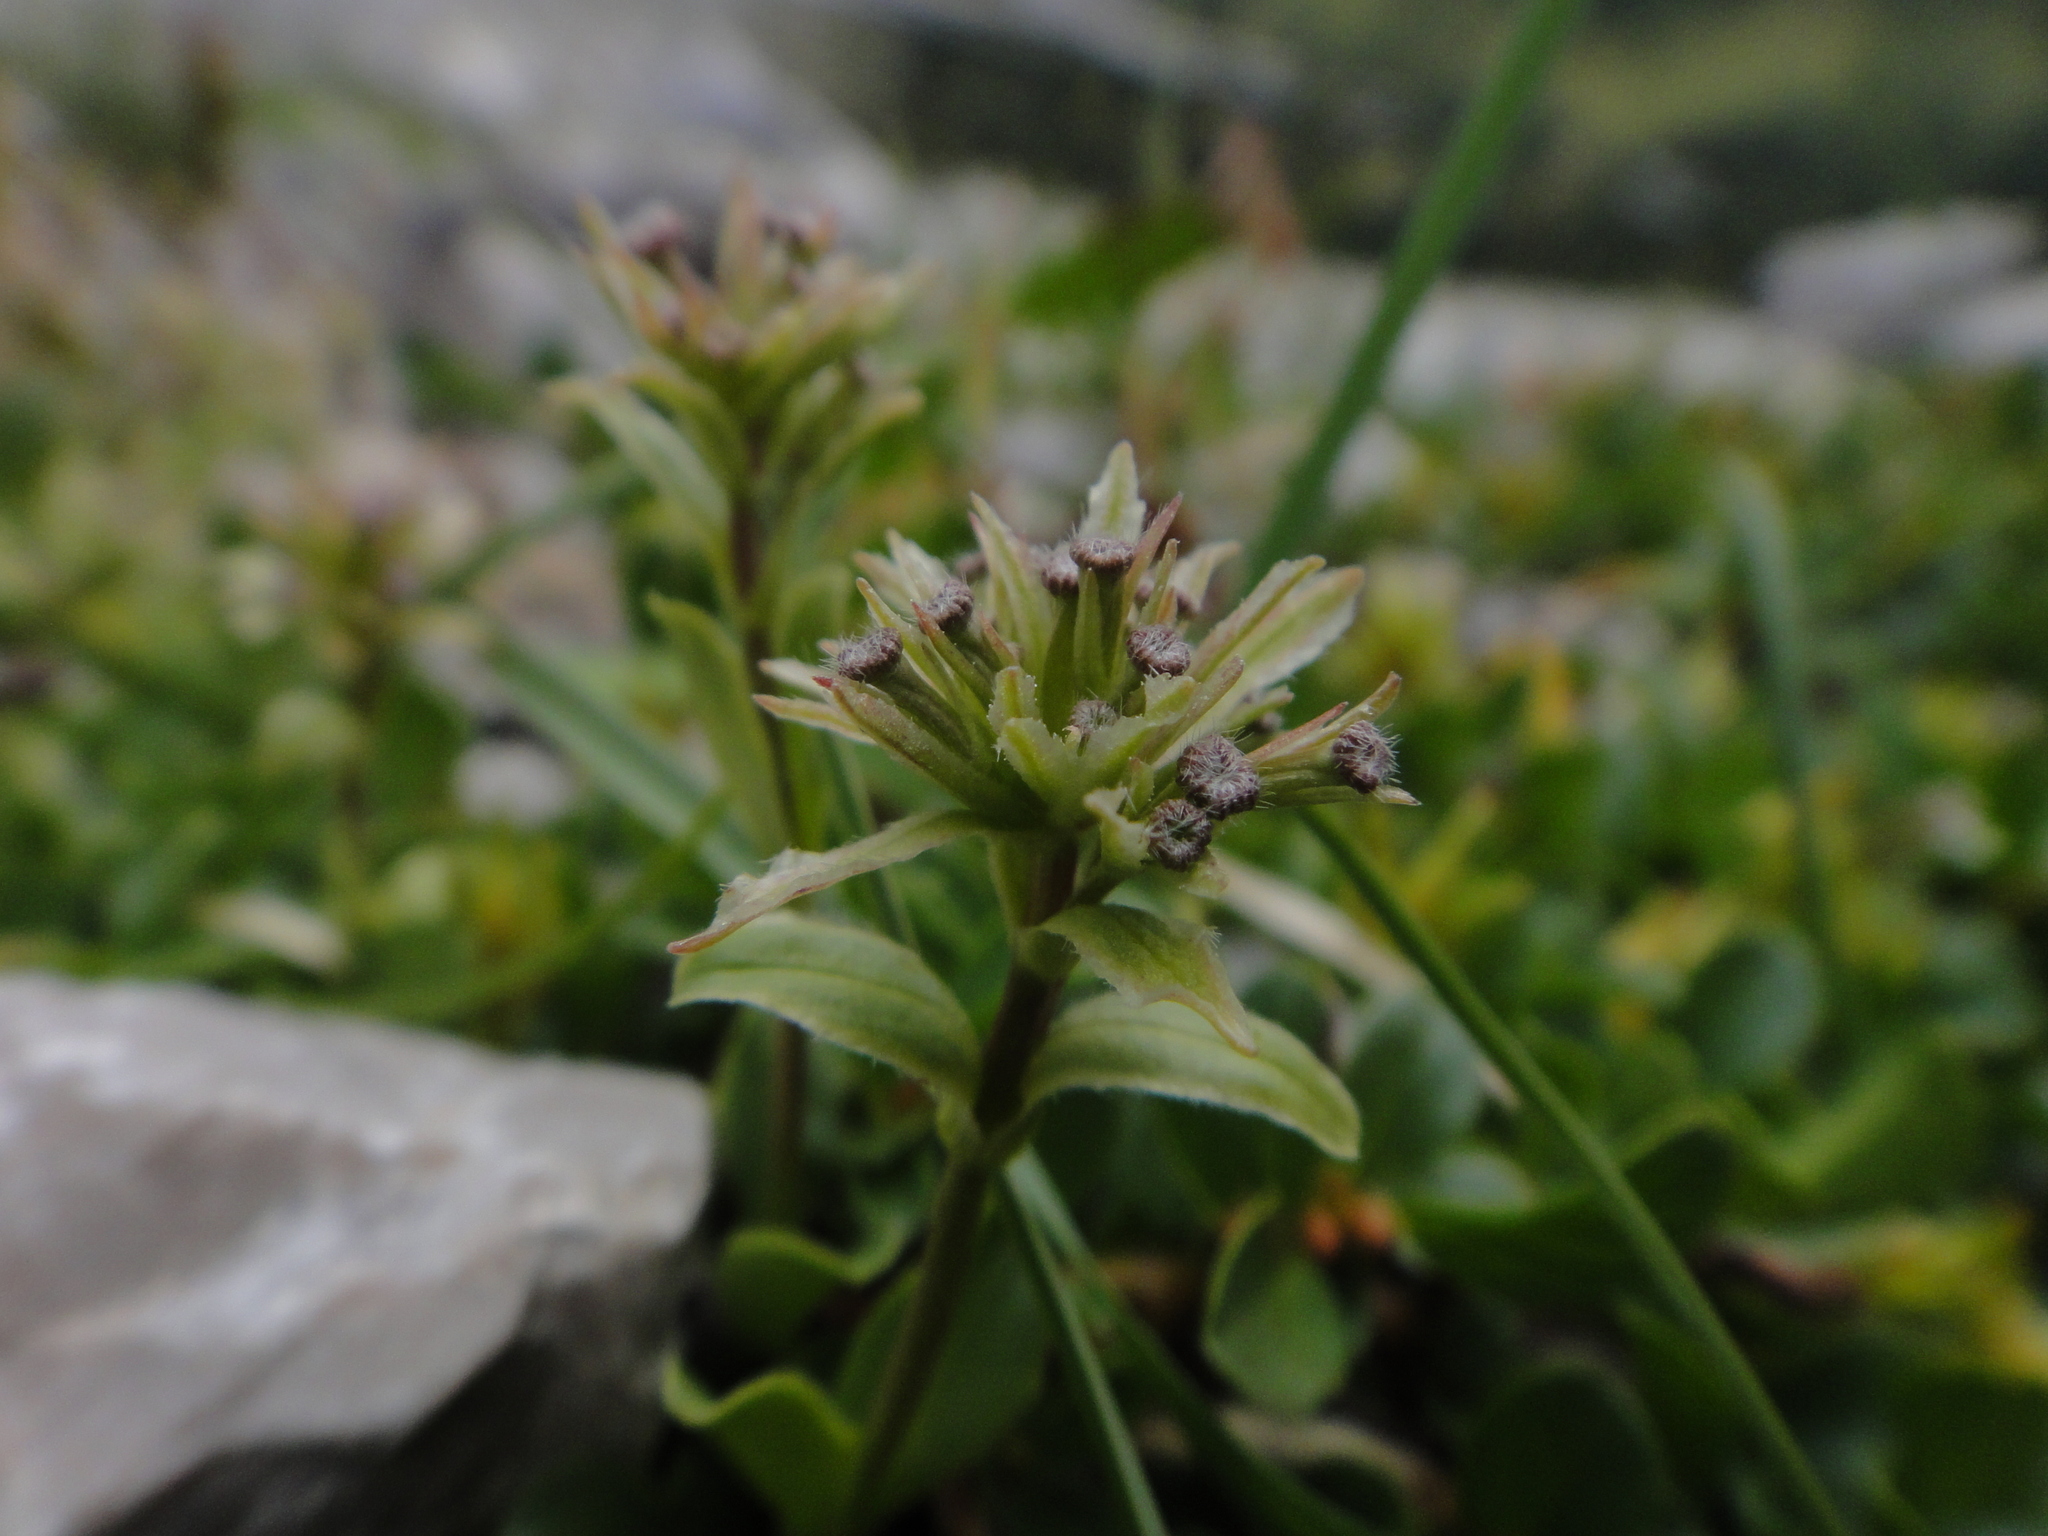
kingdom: Plantae
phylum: Tracheophyta
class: Magnoliopsida
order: Dipsacales
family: Caprifoliaceae
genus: Valeriana
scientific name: Valeriana supina
